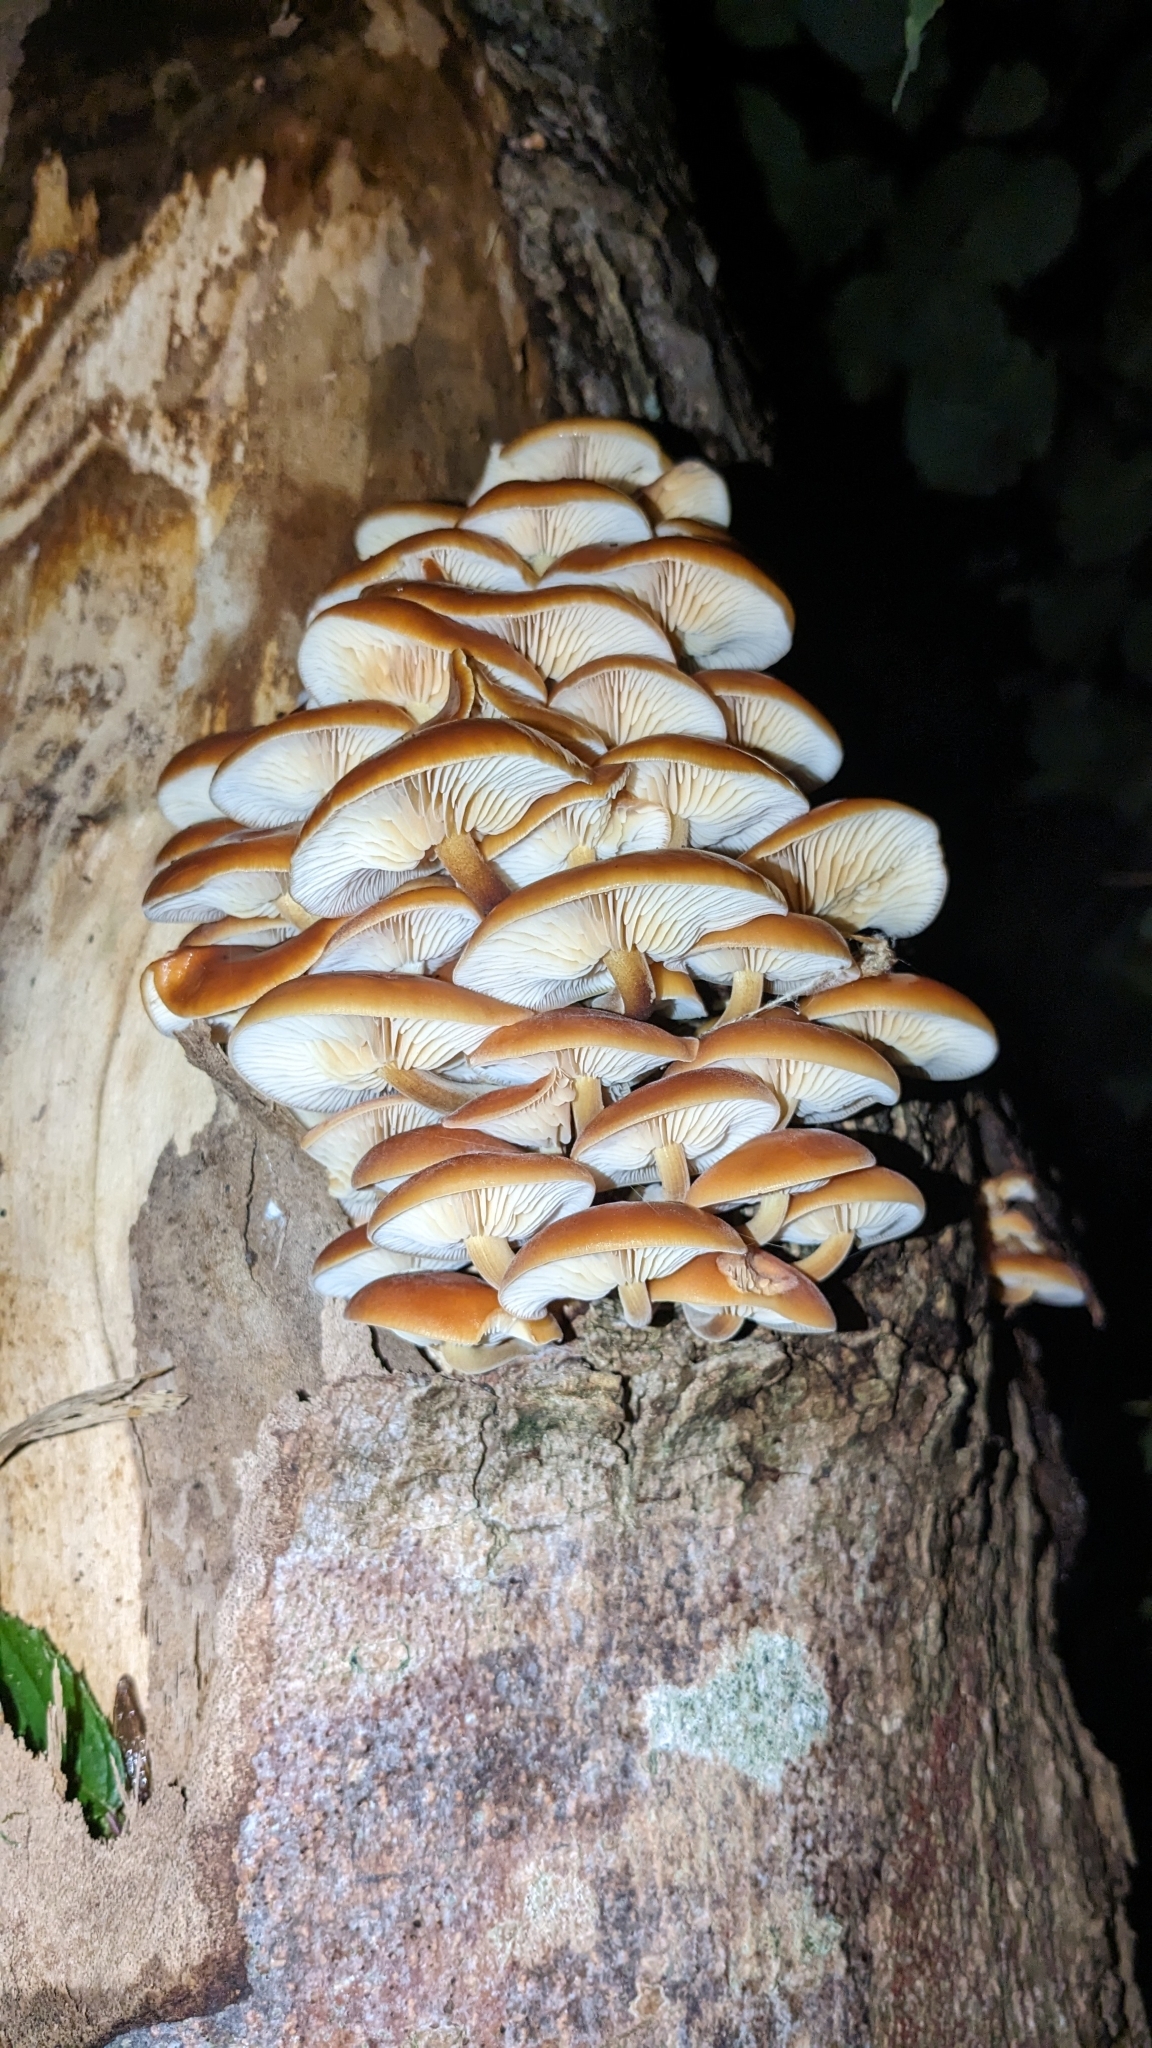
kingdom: Fungi
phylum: Basidiomycota
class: Agaricomycetes
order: Agaricales
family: Physalacriaceae
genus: Flammulina
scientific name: Flammulina
